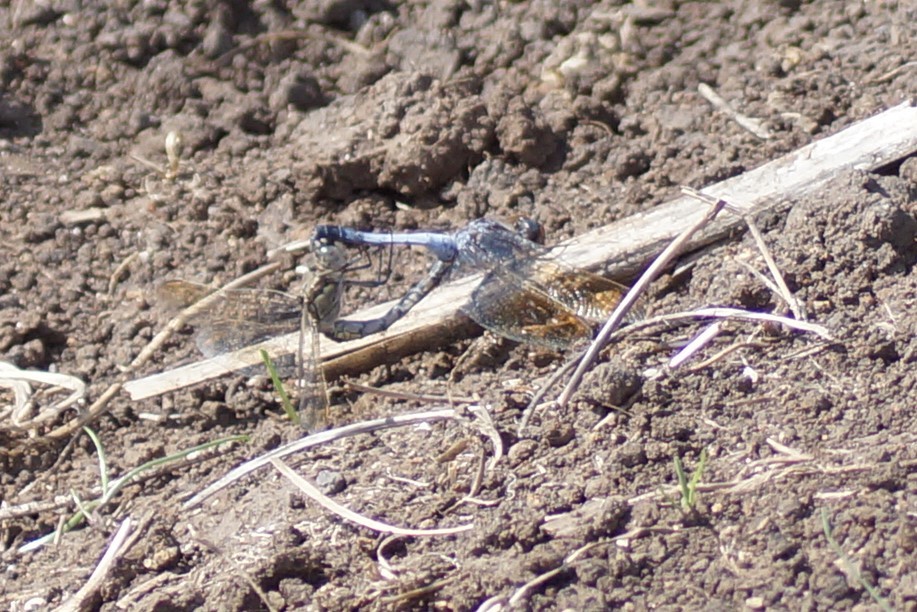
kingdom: Animalia
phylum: Arthropoda
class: Insecta
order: Odonata
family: Libellulidae
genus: Orthetrum
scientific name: Orthetrum caledonicum
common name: Blue skimmer
